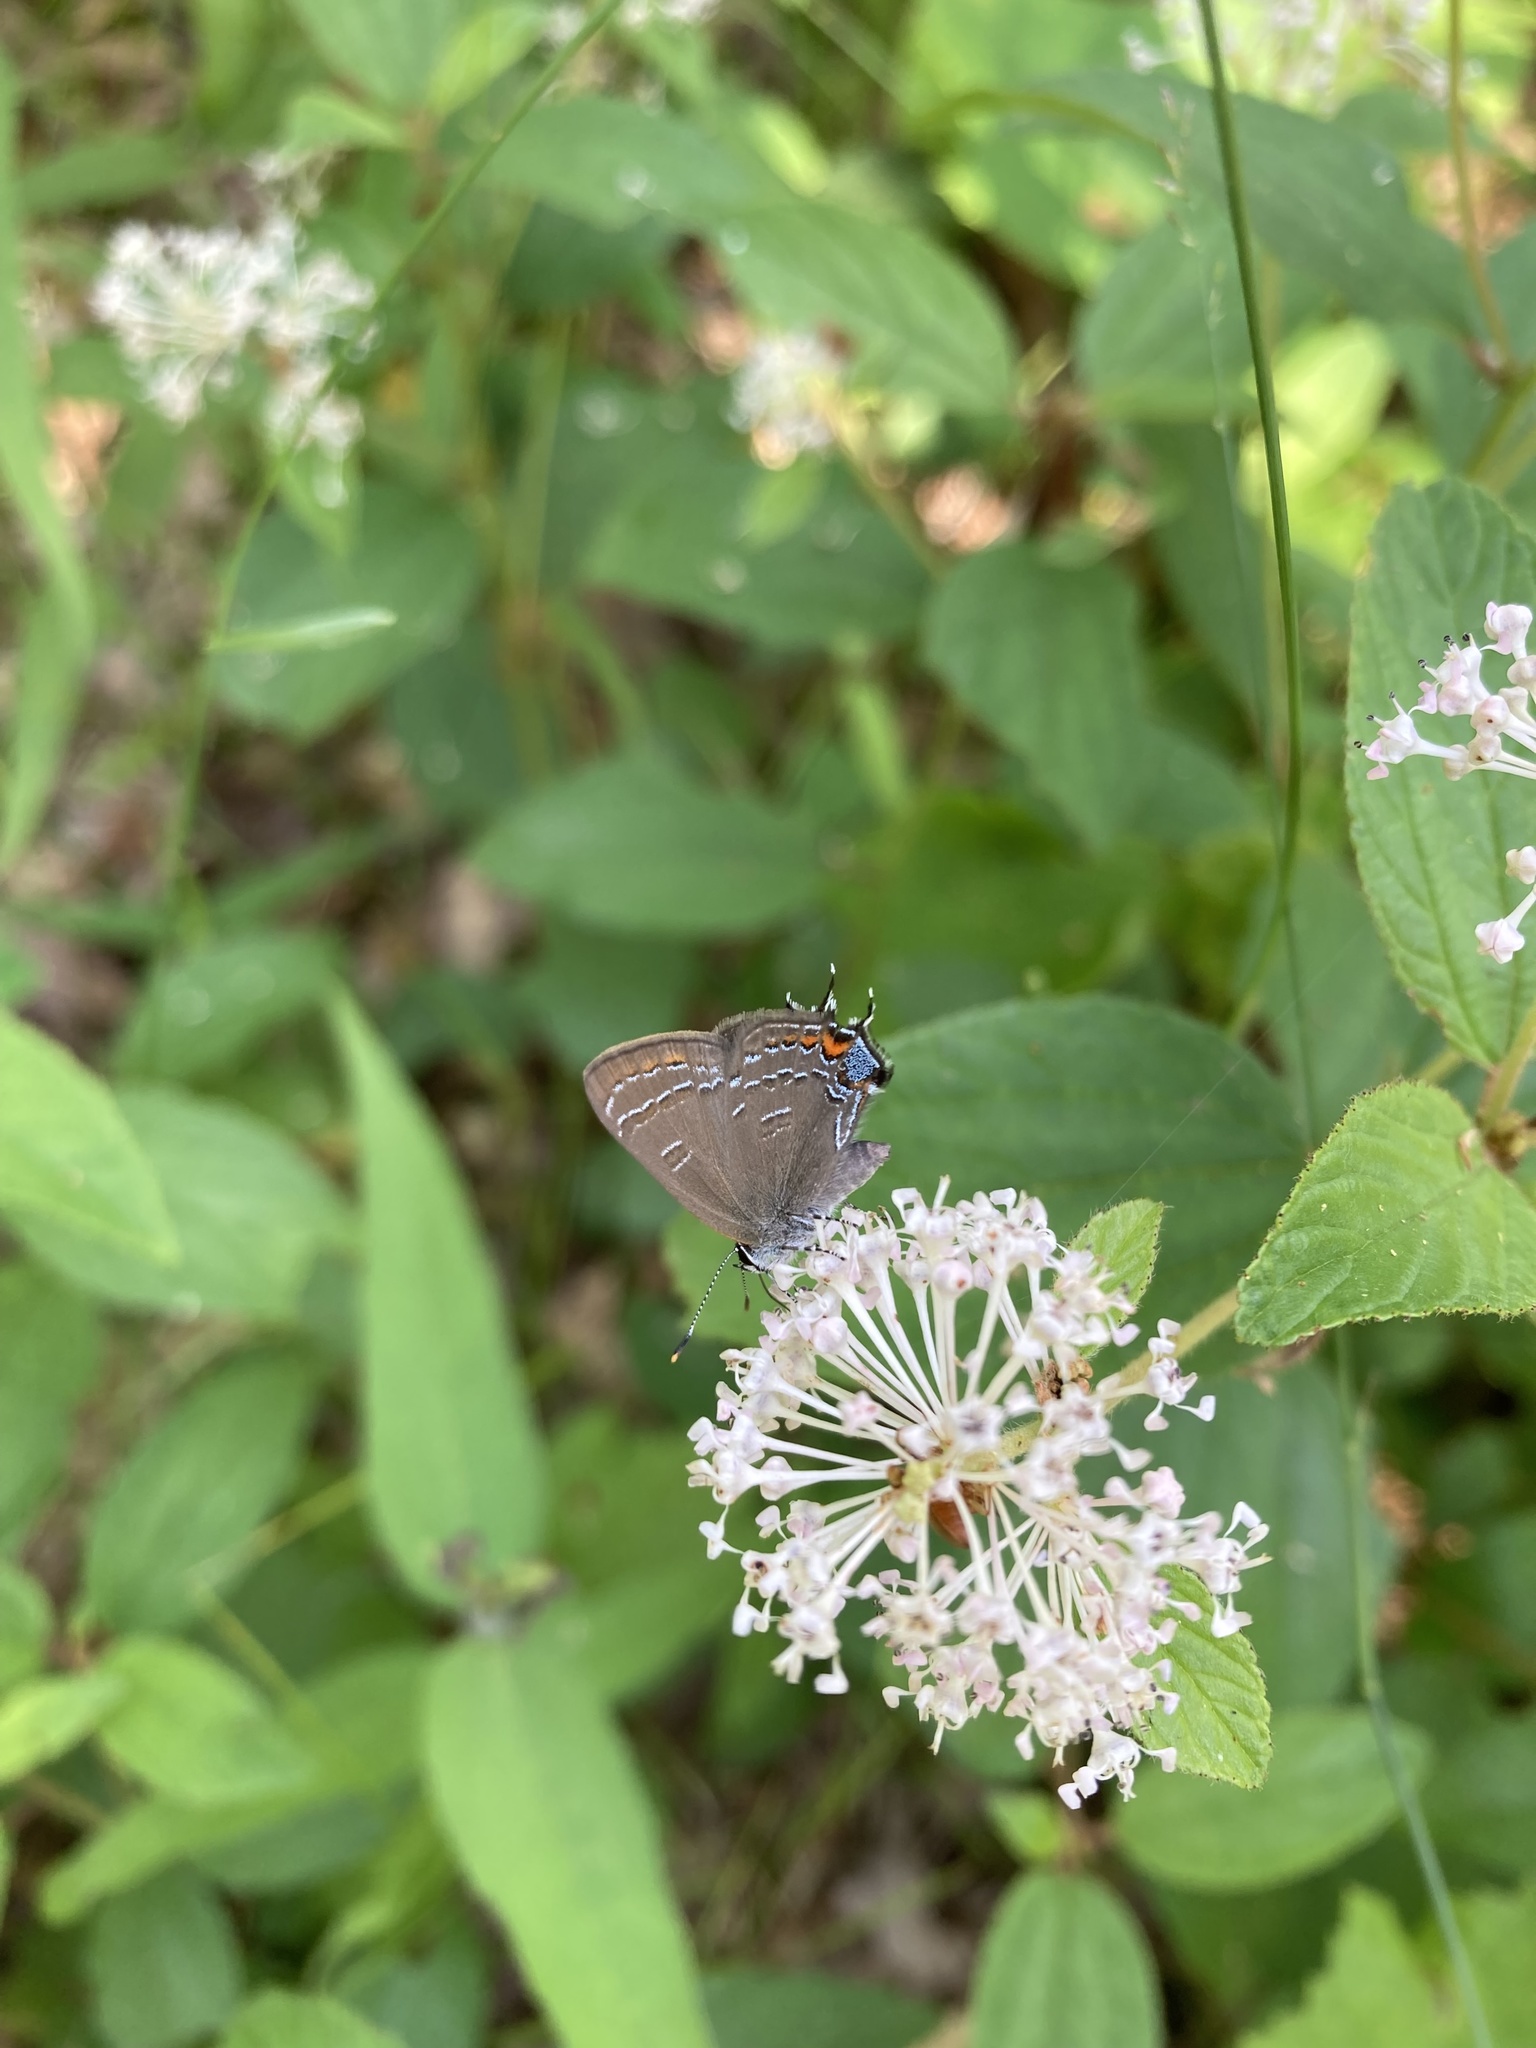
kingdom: Animalia
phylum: Arthropoda
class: Insecta
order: Lepidoptera
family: Lycaenidae
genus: Satyrium
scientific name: Satyrium calanus
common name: Banded hairstreak
